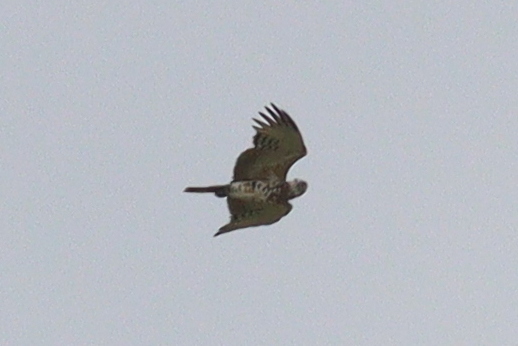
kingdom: Animalia
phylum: Chordata
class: Aves
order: Accipitriformes
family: Accipitridae
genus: Circaetus
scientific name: Circaetus pectoralis
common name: Black-chested snake eagle
